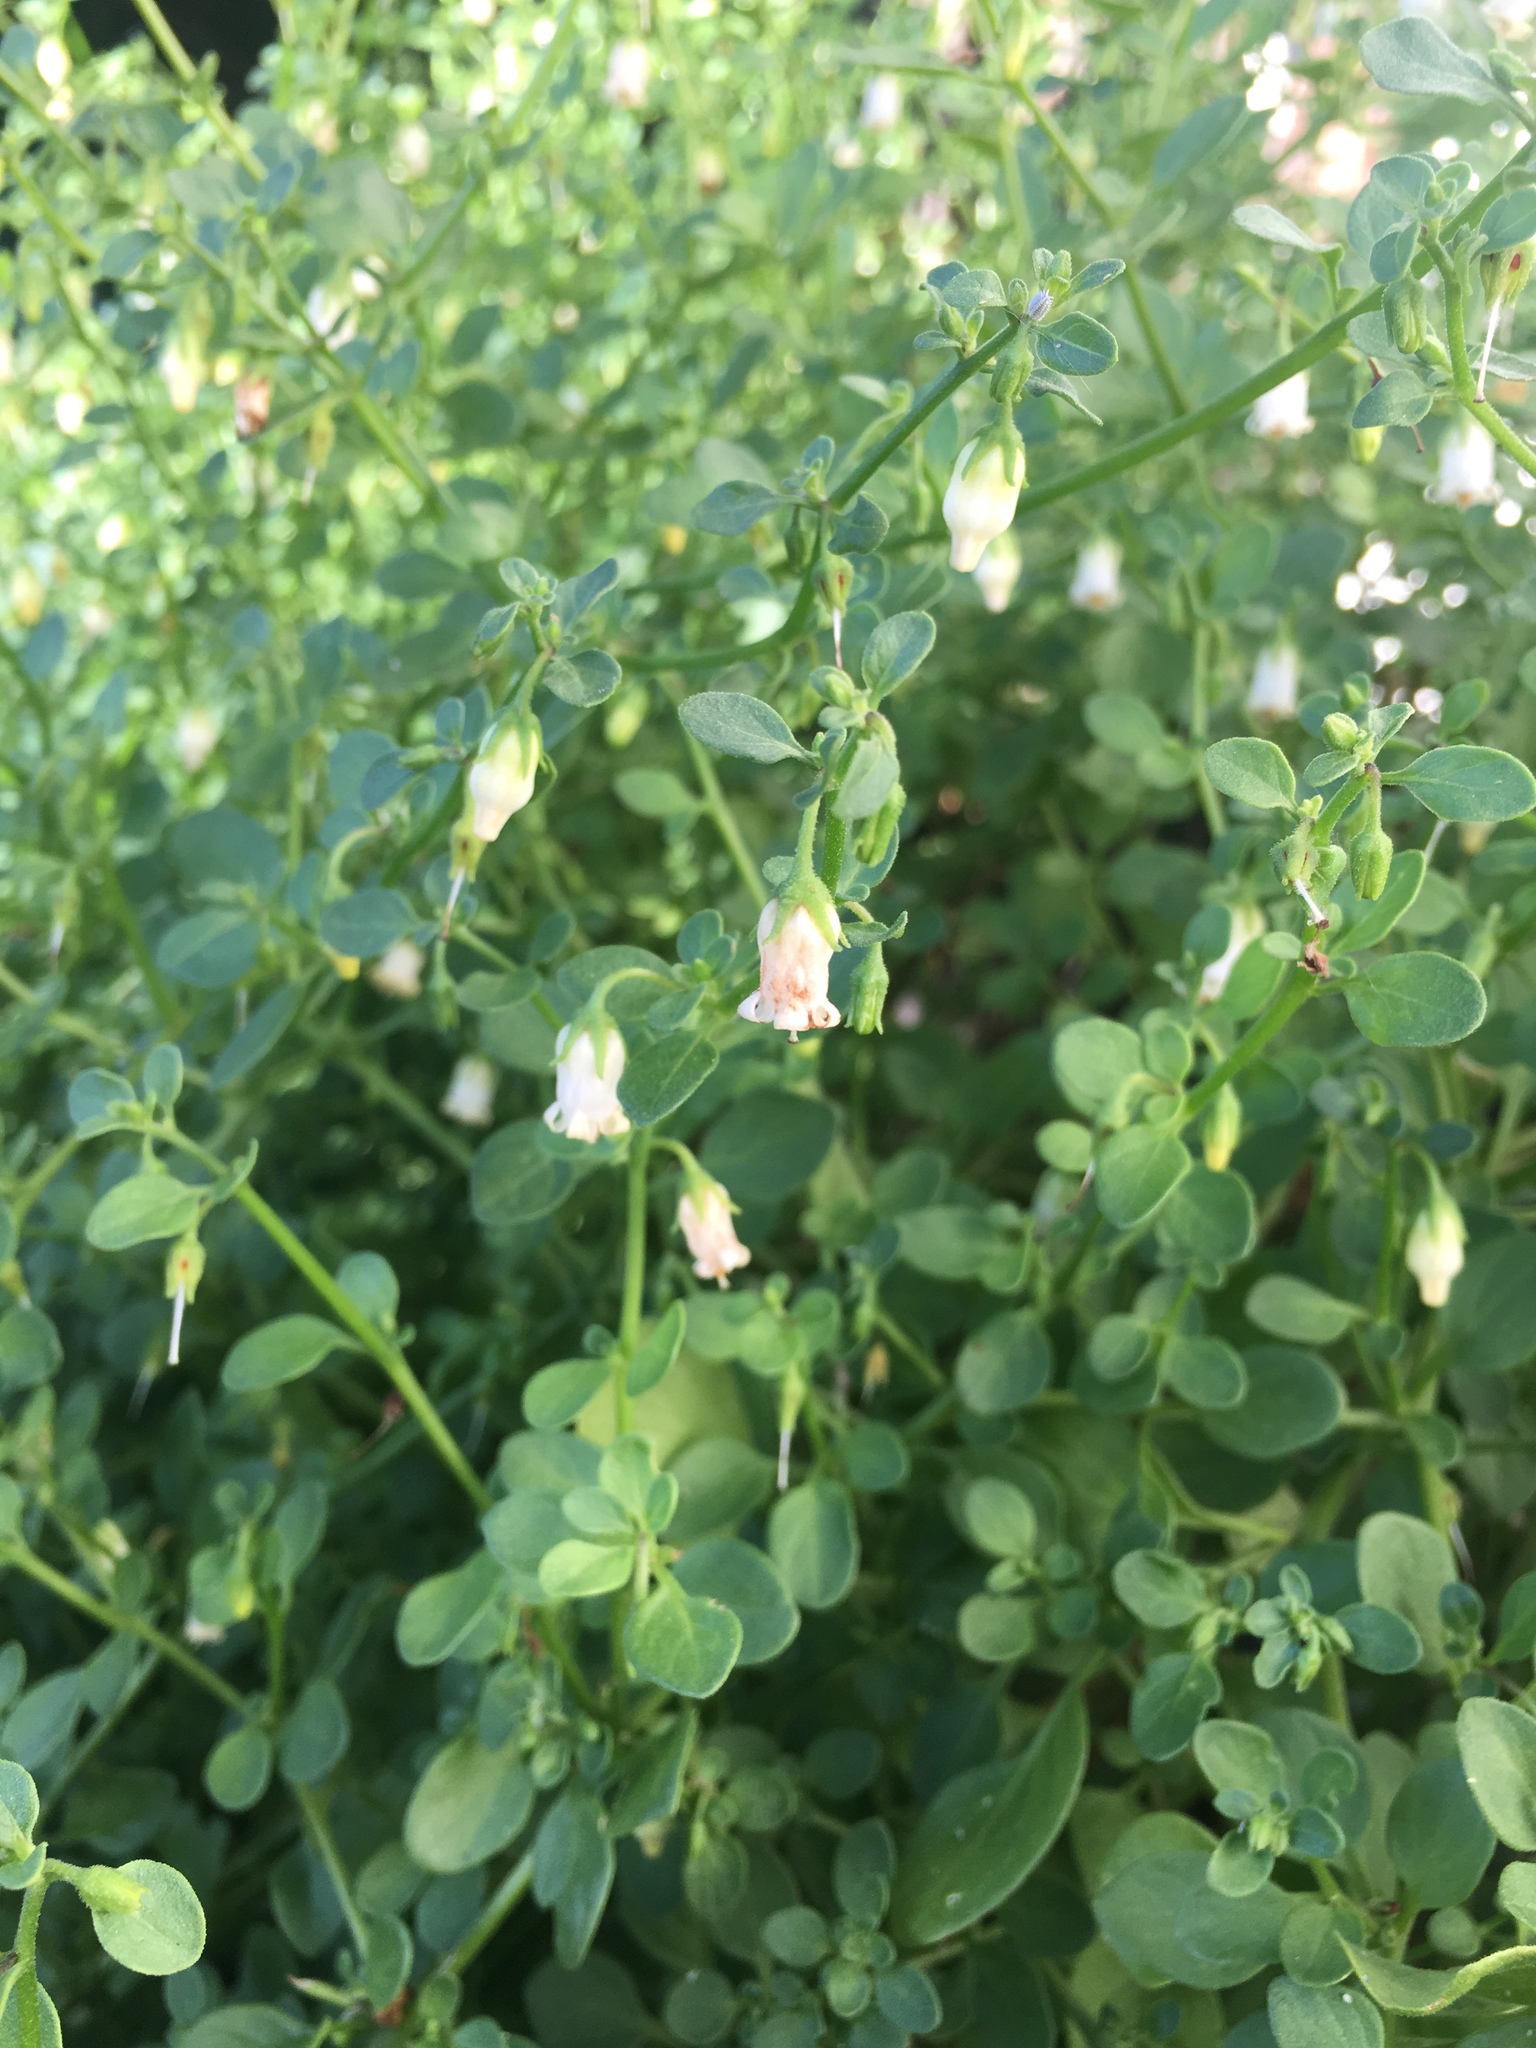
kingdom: Plantae
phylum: Tracheophyta
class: Magnoliopsida
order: Solanales
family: Solanaceae
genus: Salpichroa
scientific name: Salpichroa origanifolia
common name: Lily-of-the-valley-vine
